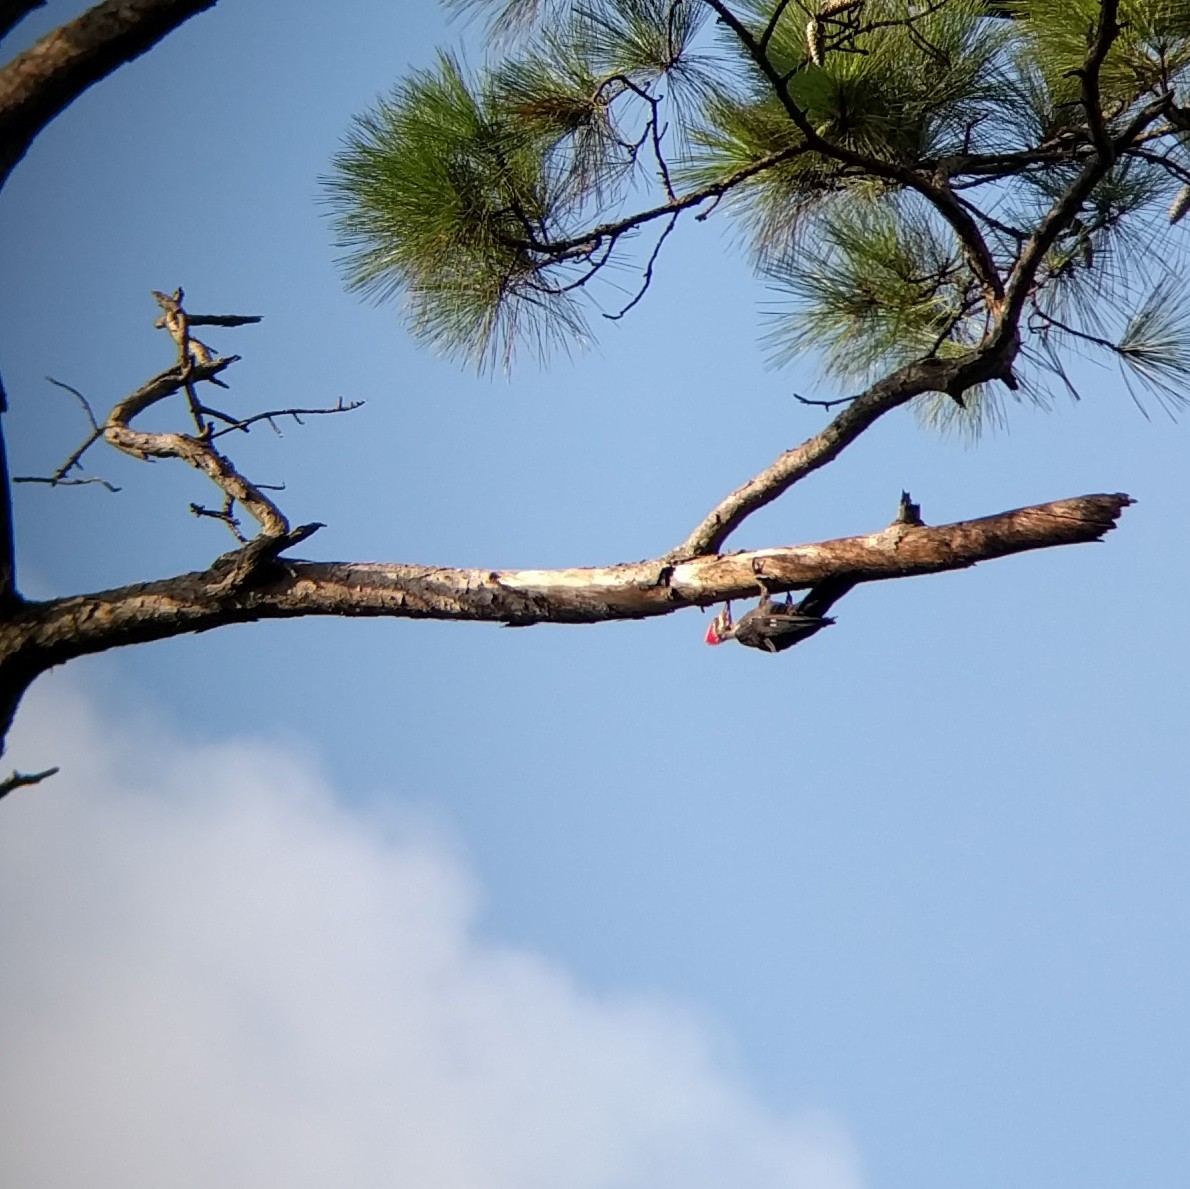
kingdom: Animalia
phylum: Chordata
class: Aves
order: Piciformes
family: Picidae
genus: Dryocopus
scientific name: Dryocopus pileatus
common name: Pileated woodpecker
